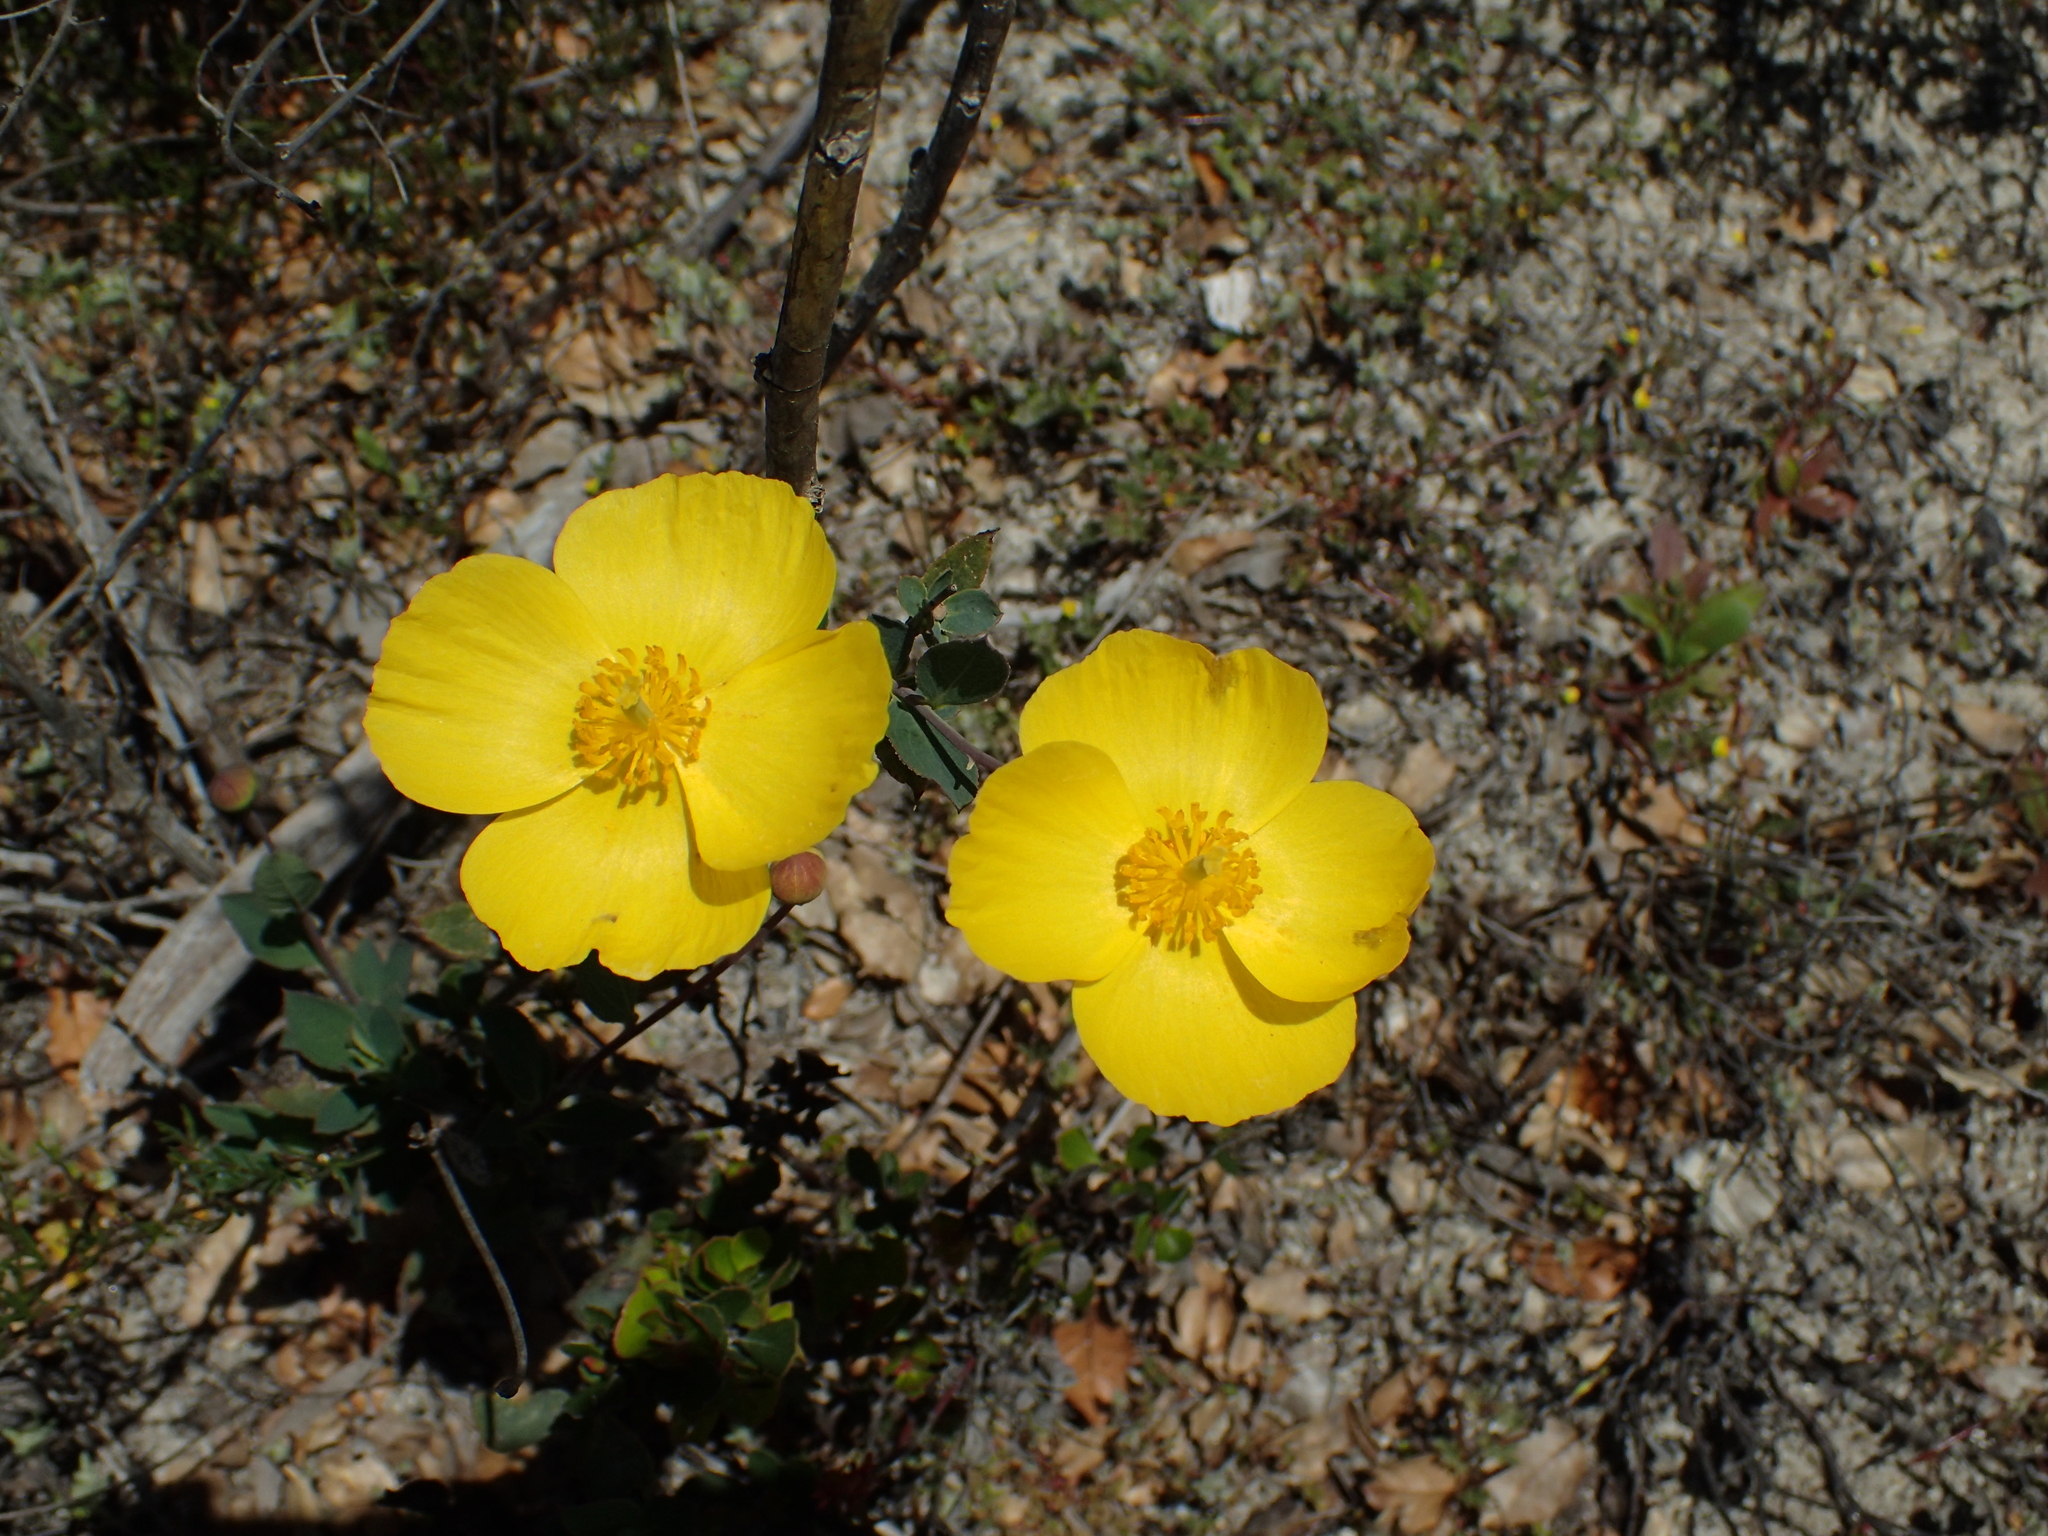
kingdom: Plantae
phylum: Tracheophyta
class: Magnoliopsida
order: Ranunculales
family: Papaveraceae
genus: Dendromecon
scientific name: Dendromecon rigida
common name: Tree poppy
